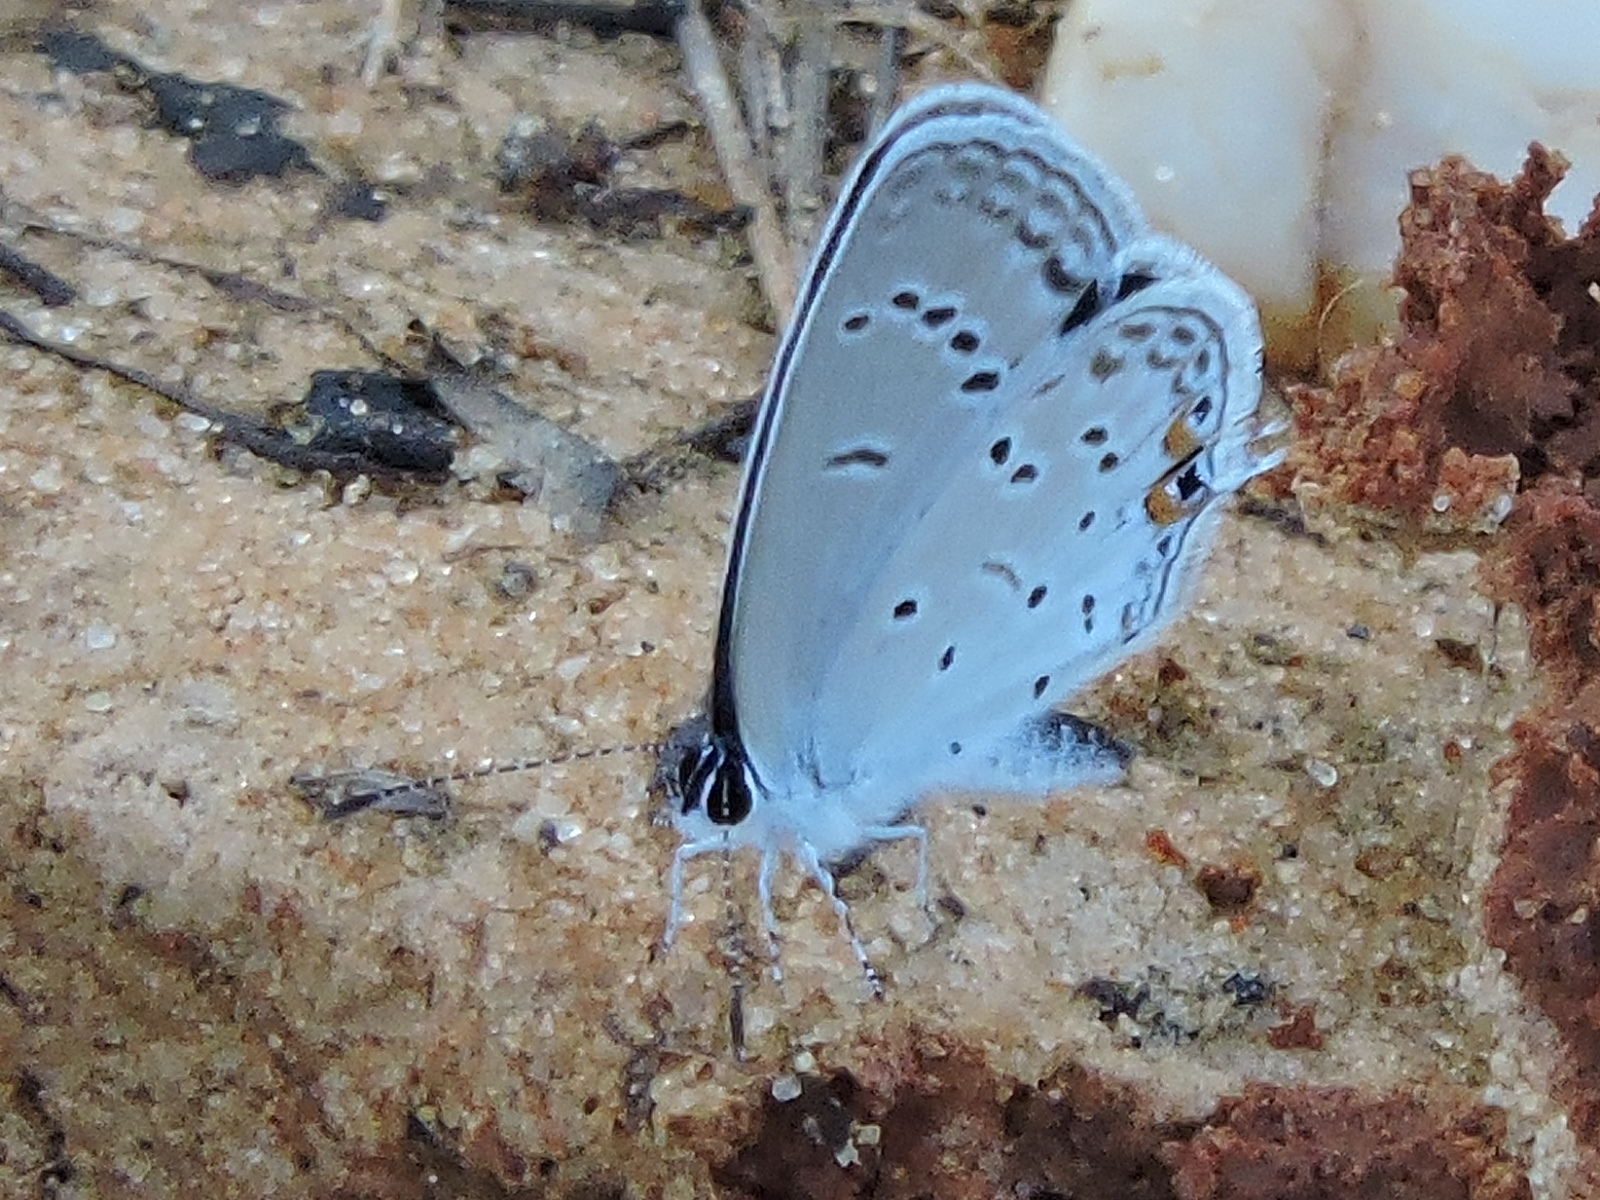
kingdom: Animalia
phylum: Arthropoda
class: Insecta
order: Lepidoptera
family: Lycaenidae
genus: Elkalyce
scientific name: Elkalyce comyntas
